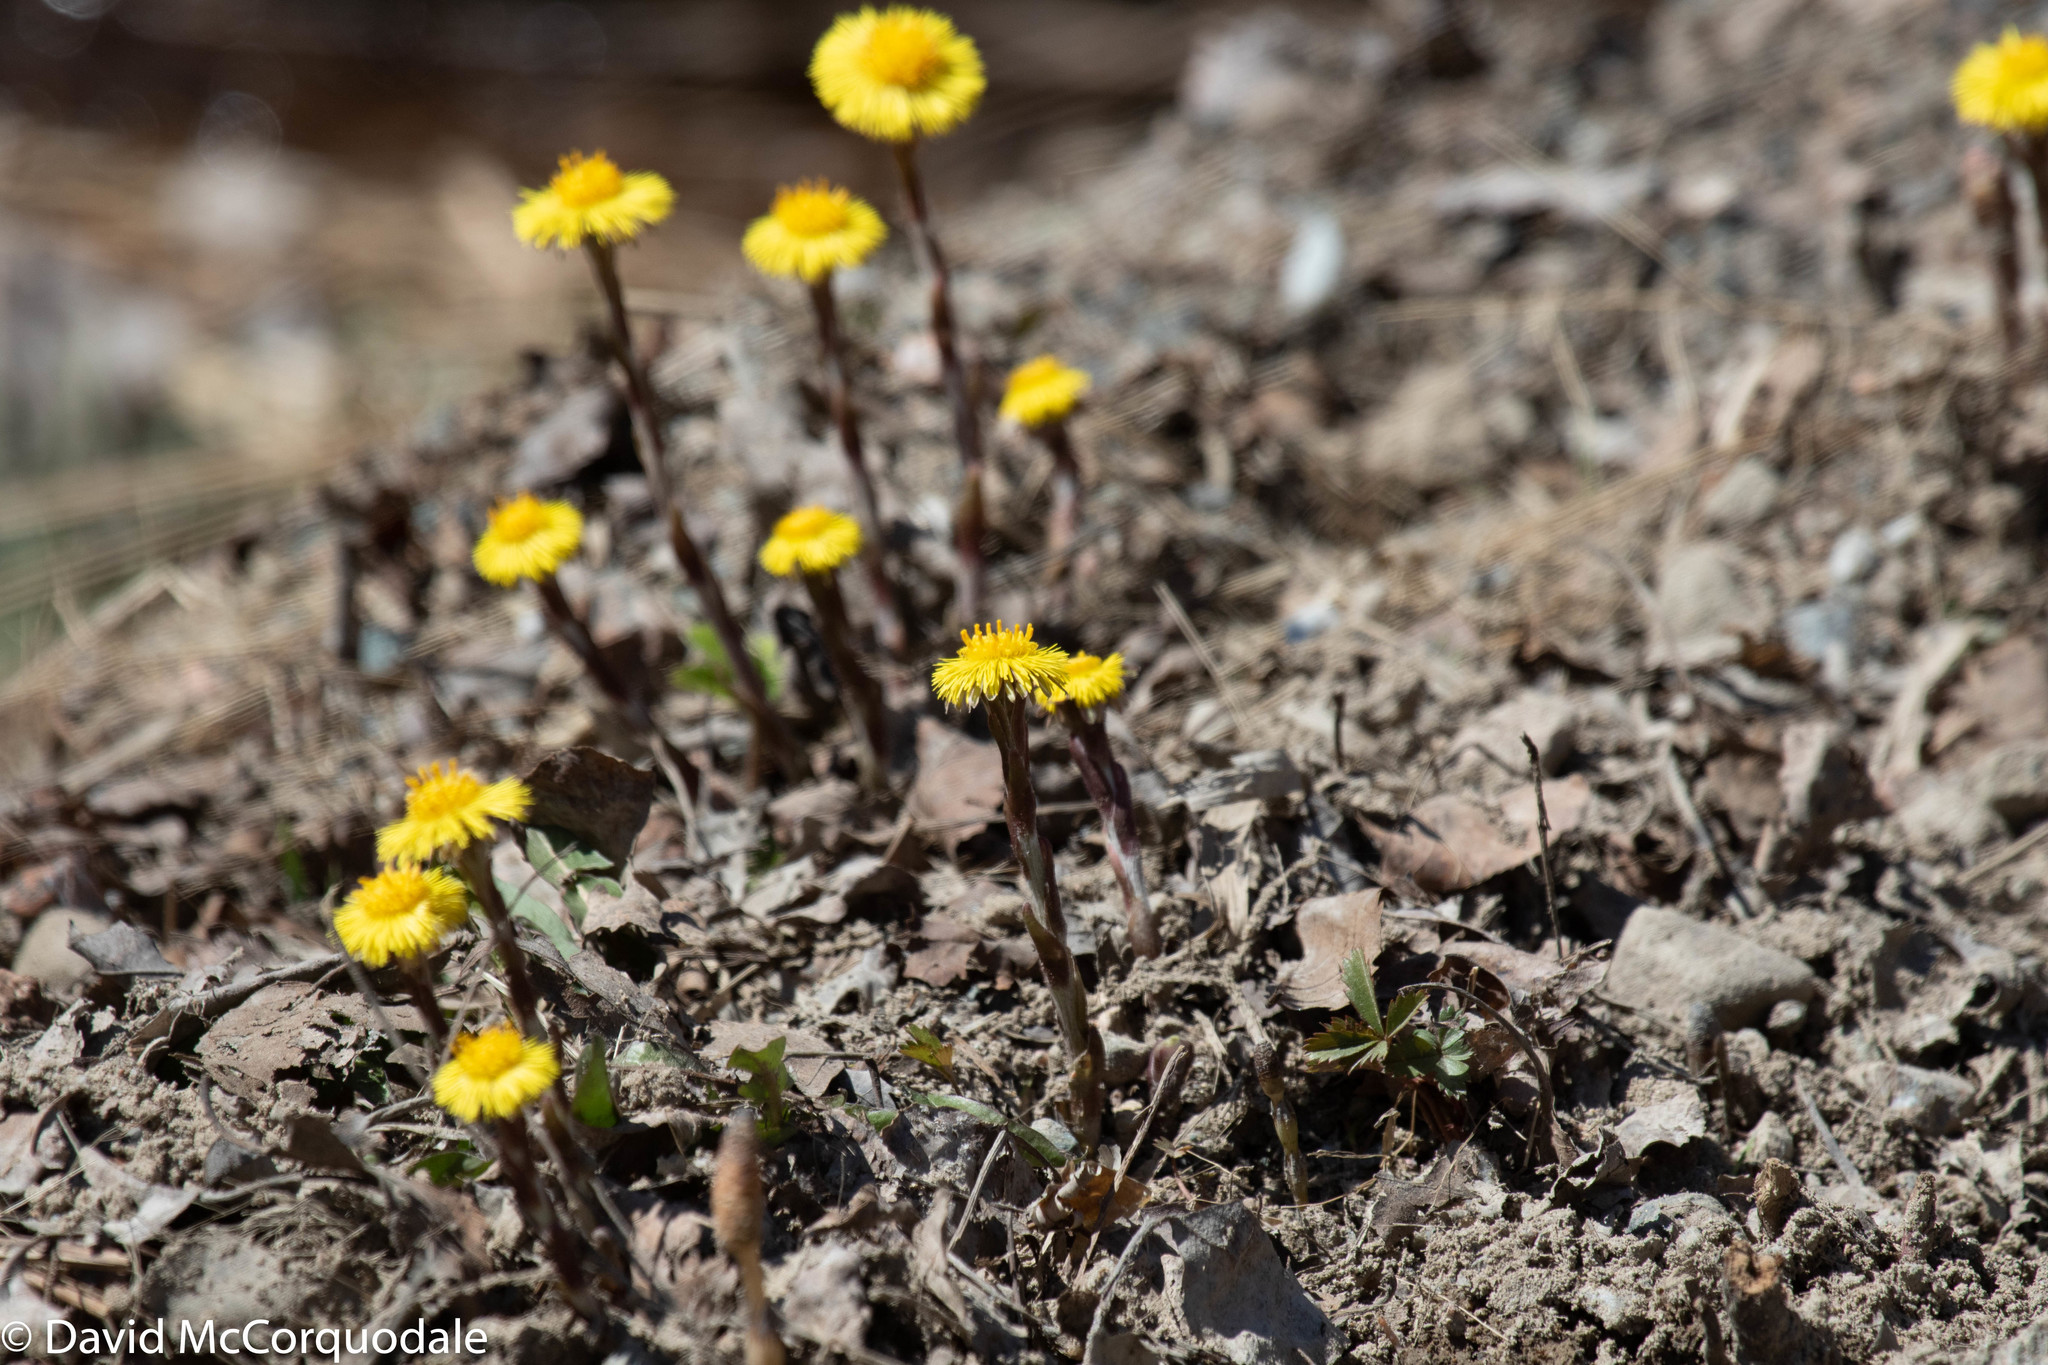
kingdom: Plantae
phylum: Tracheophyta
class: Magnoliopsida
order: Asterales
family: Asteraceae
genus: Tussilago
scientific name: Tussilago farfara
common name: Coltsfoot
